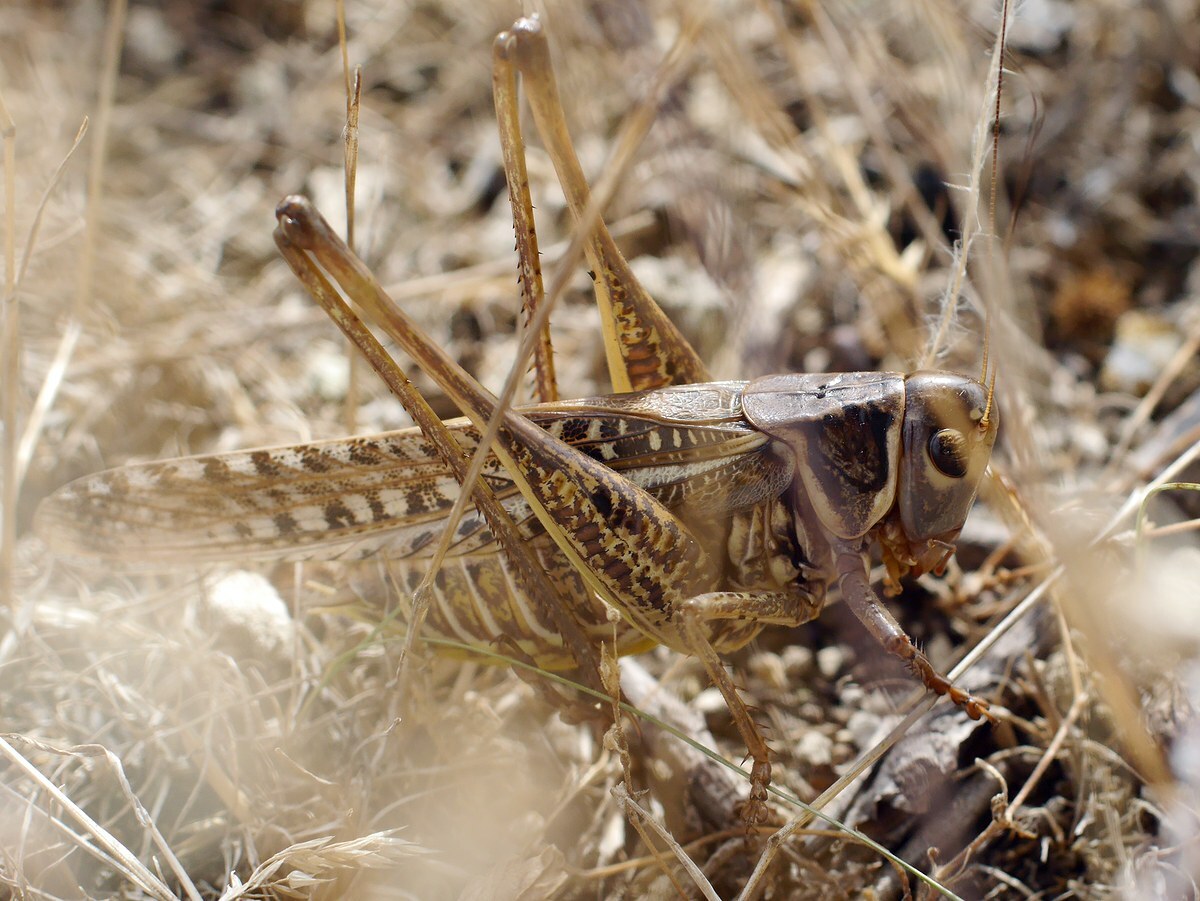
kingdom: Animalia
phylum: Arthropoda
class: Insecta
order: Orthoptera
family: Tettigoniidae
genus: Decticus
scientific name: Decticus albifrons
